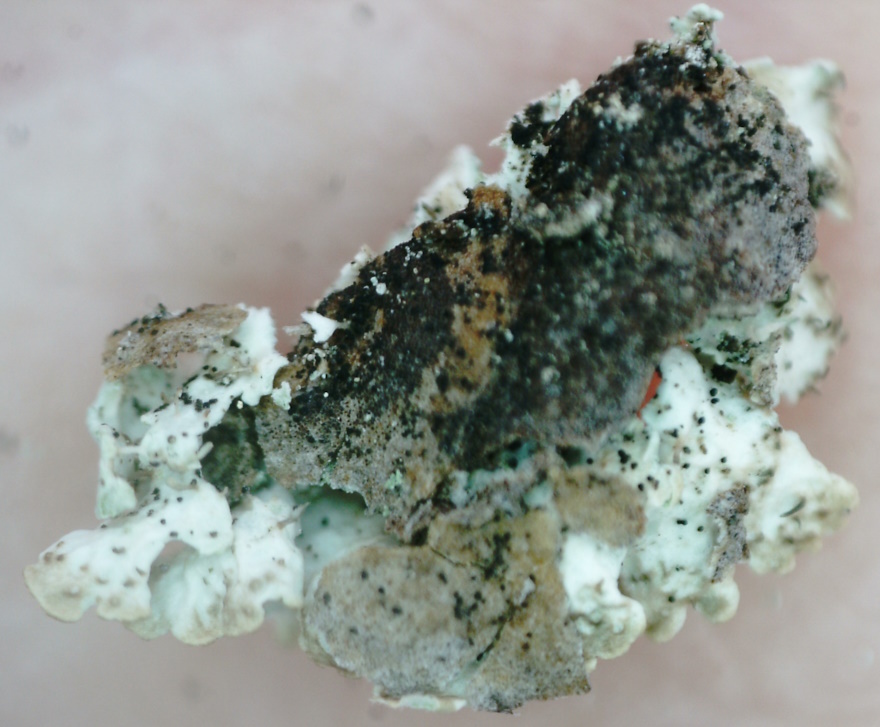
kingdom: Fungi
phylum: Ascomycota
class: Lecanoromycetes
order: Lecanorales
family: Parmeliaceae
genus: Imshaugia
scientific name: Imshaugia aleurites
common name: Salted starburst lichen
